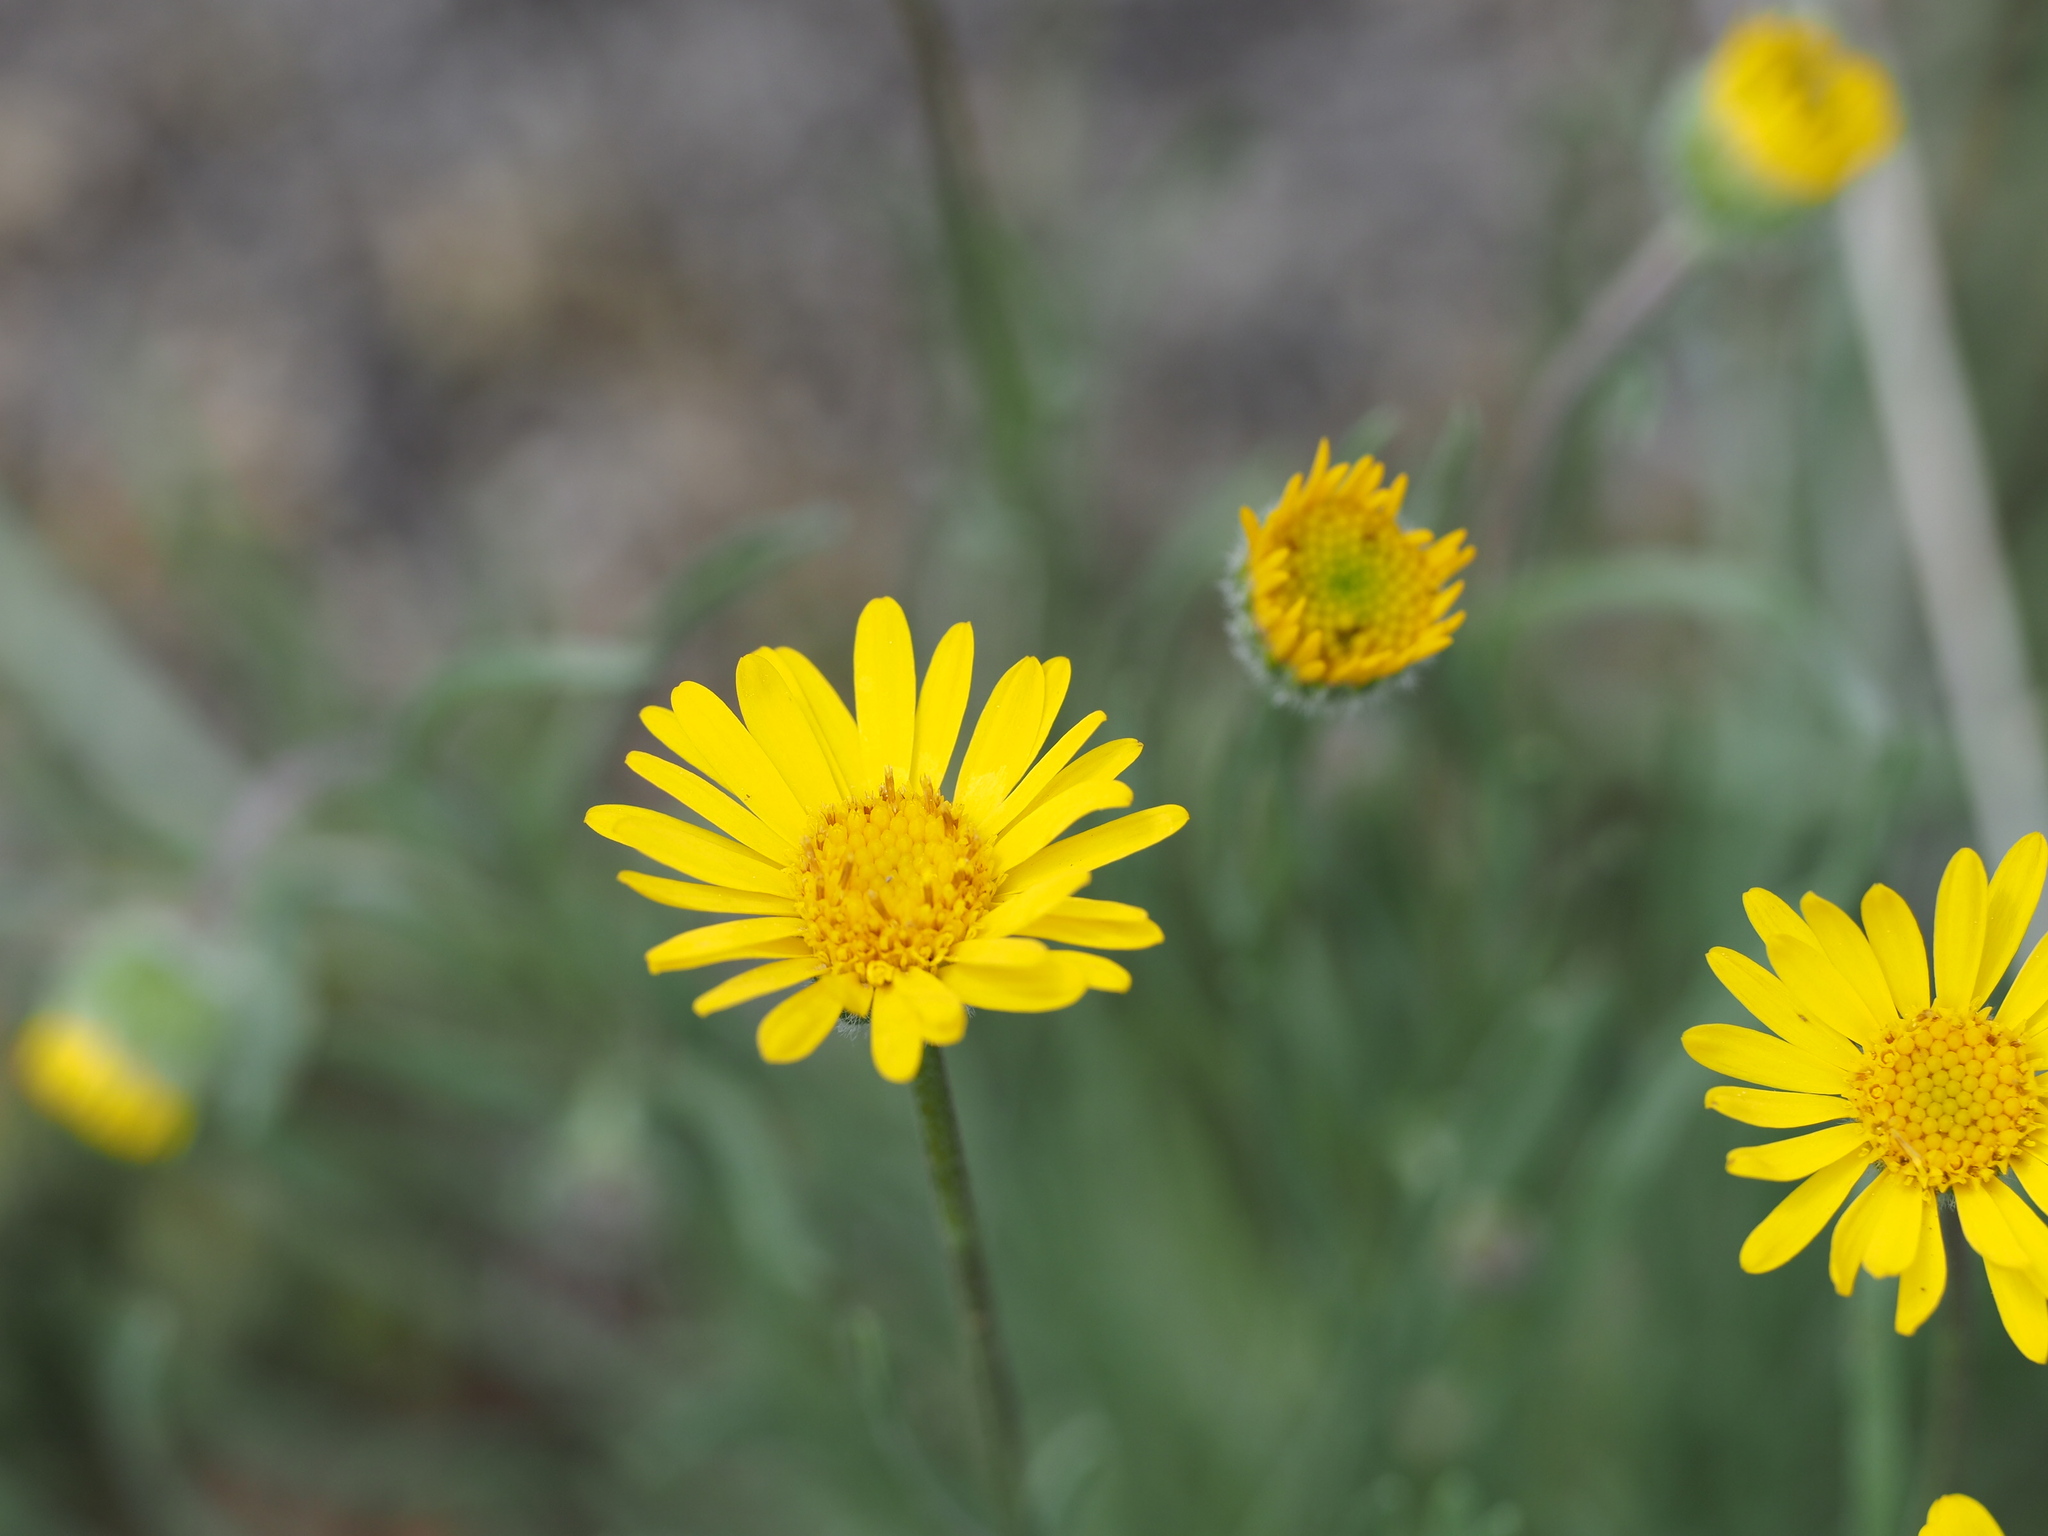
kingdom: Plantae
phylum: Tracheophyta
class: Magnoliopsida
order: Asterales
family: Asteraceae
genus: Erigeron
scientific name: Erigeron linearis
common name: Desert yellow fleabane
